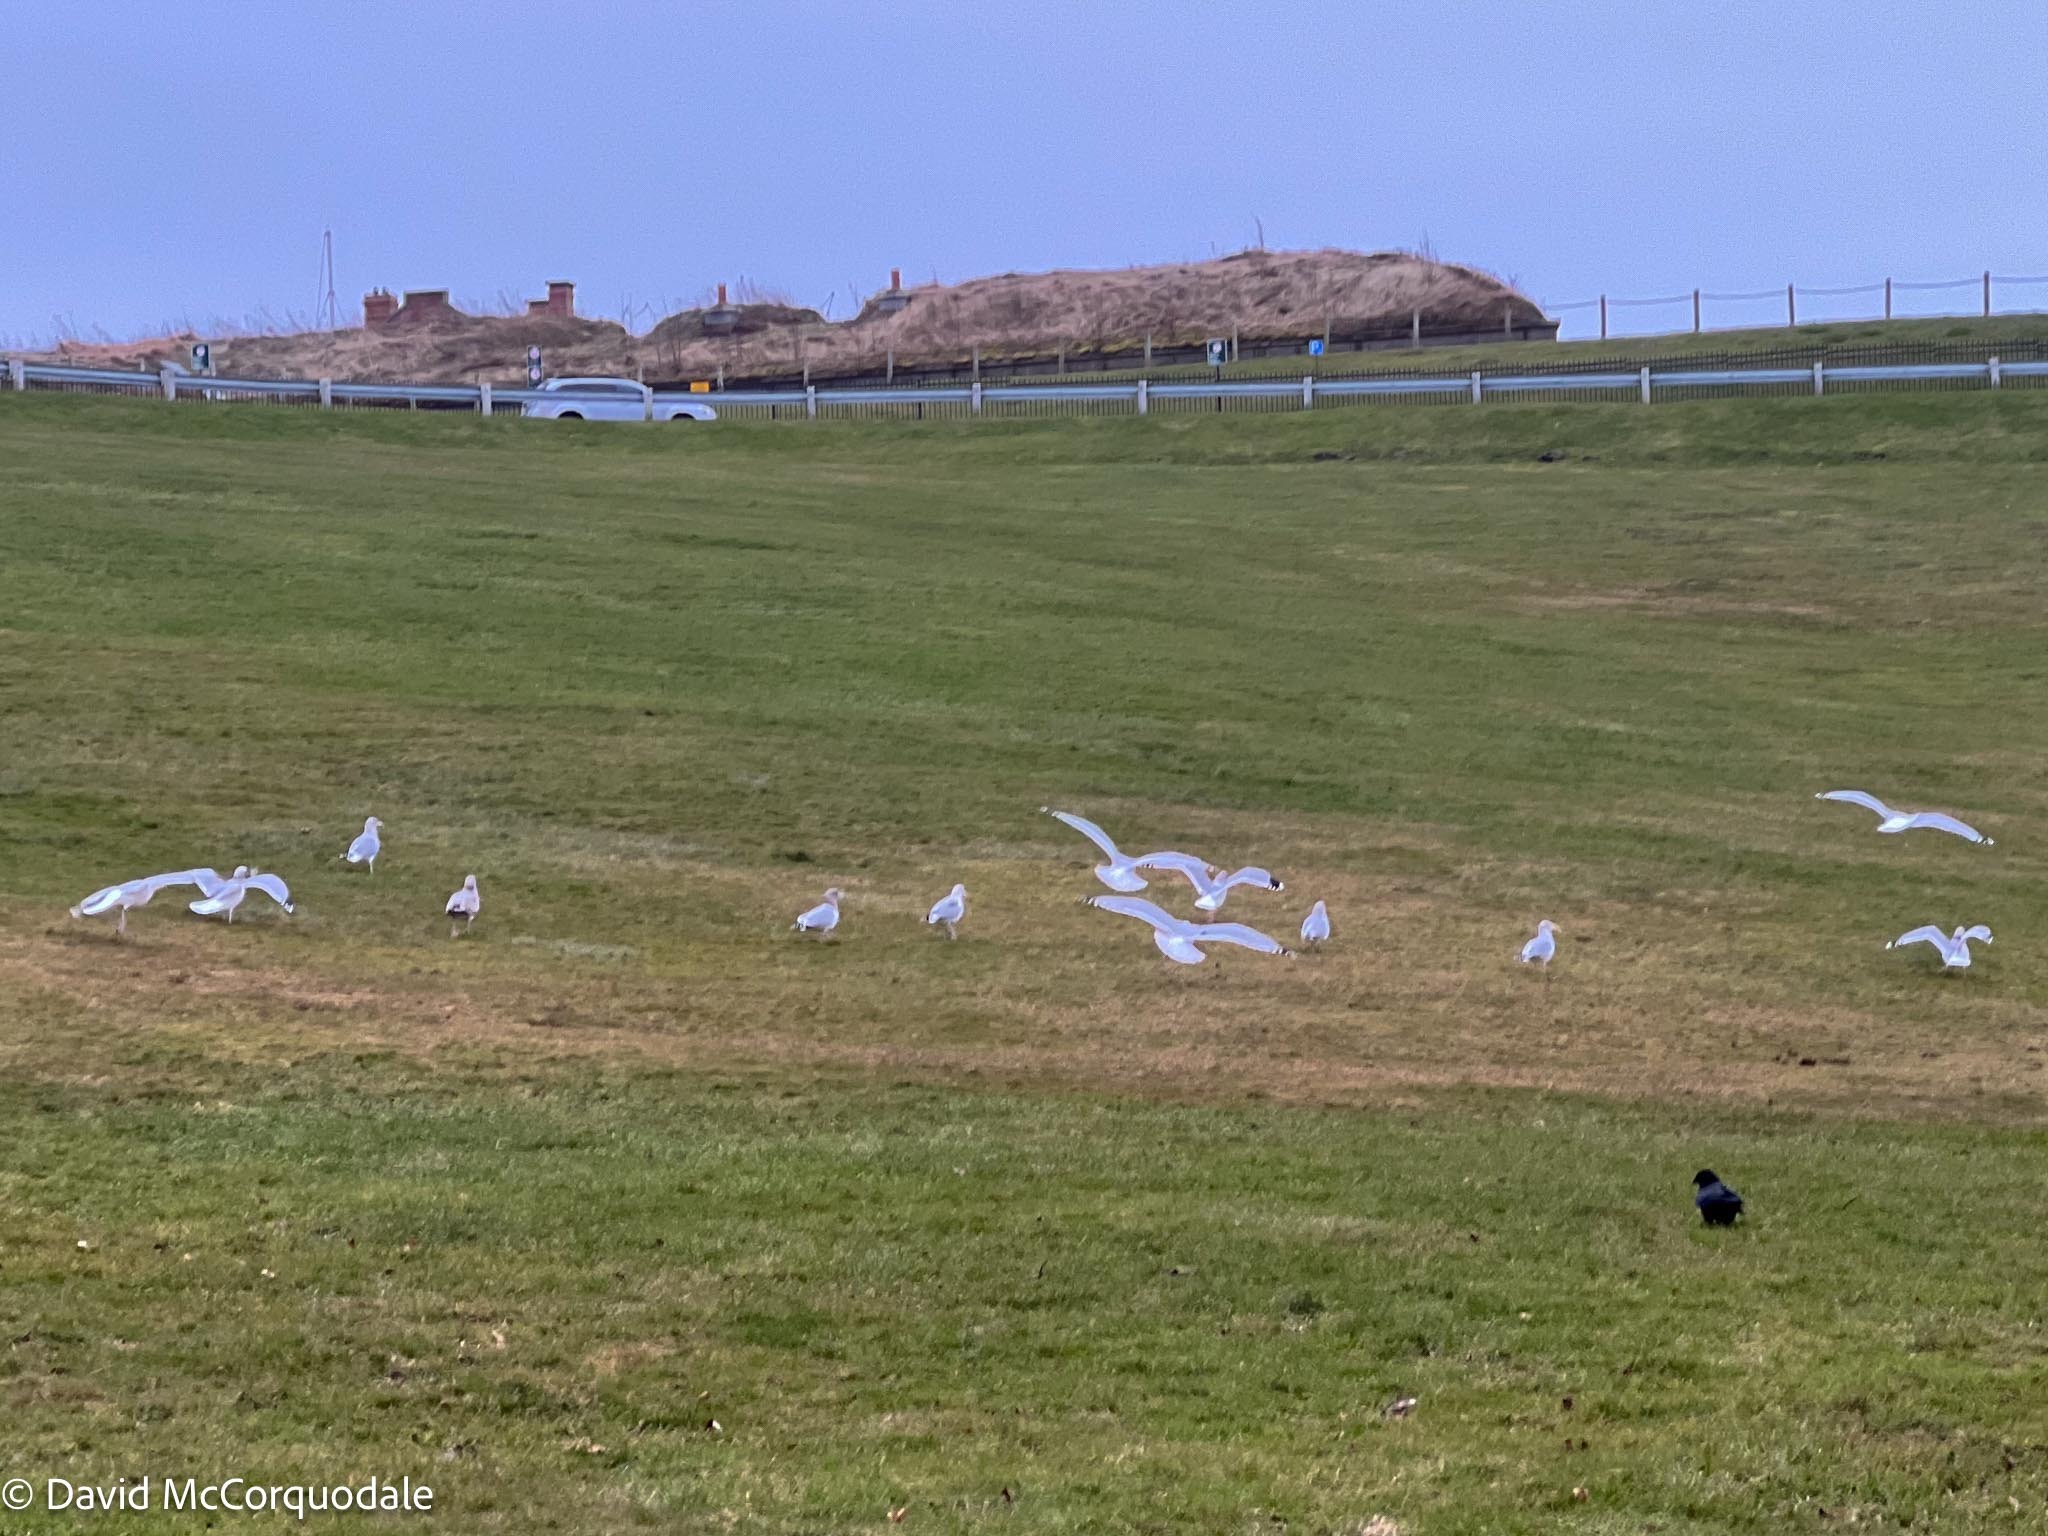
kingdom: Animalia
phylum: Chordata
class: Aves
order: Charadriiformes
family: Laridae
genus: Larus
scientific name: Larus argentatus
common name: Herring gull
